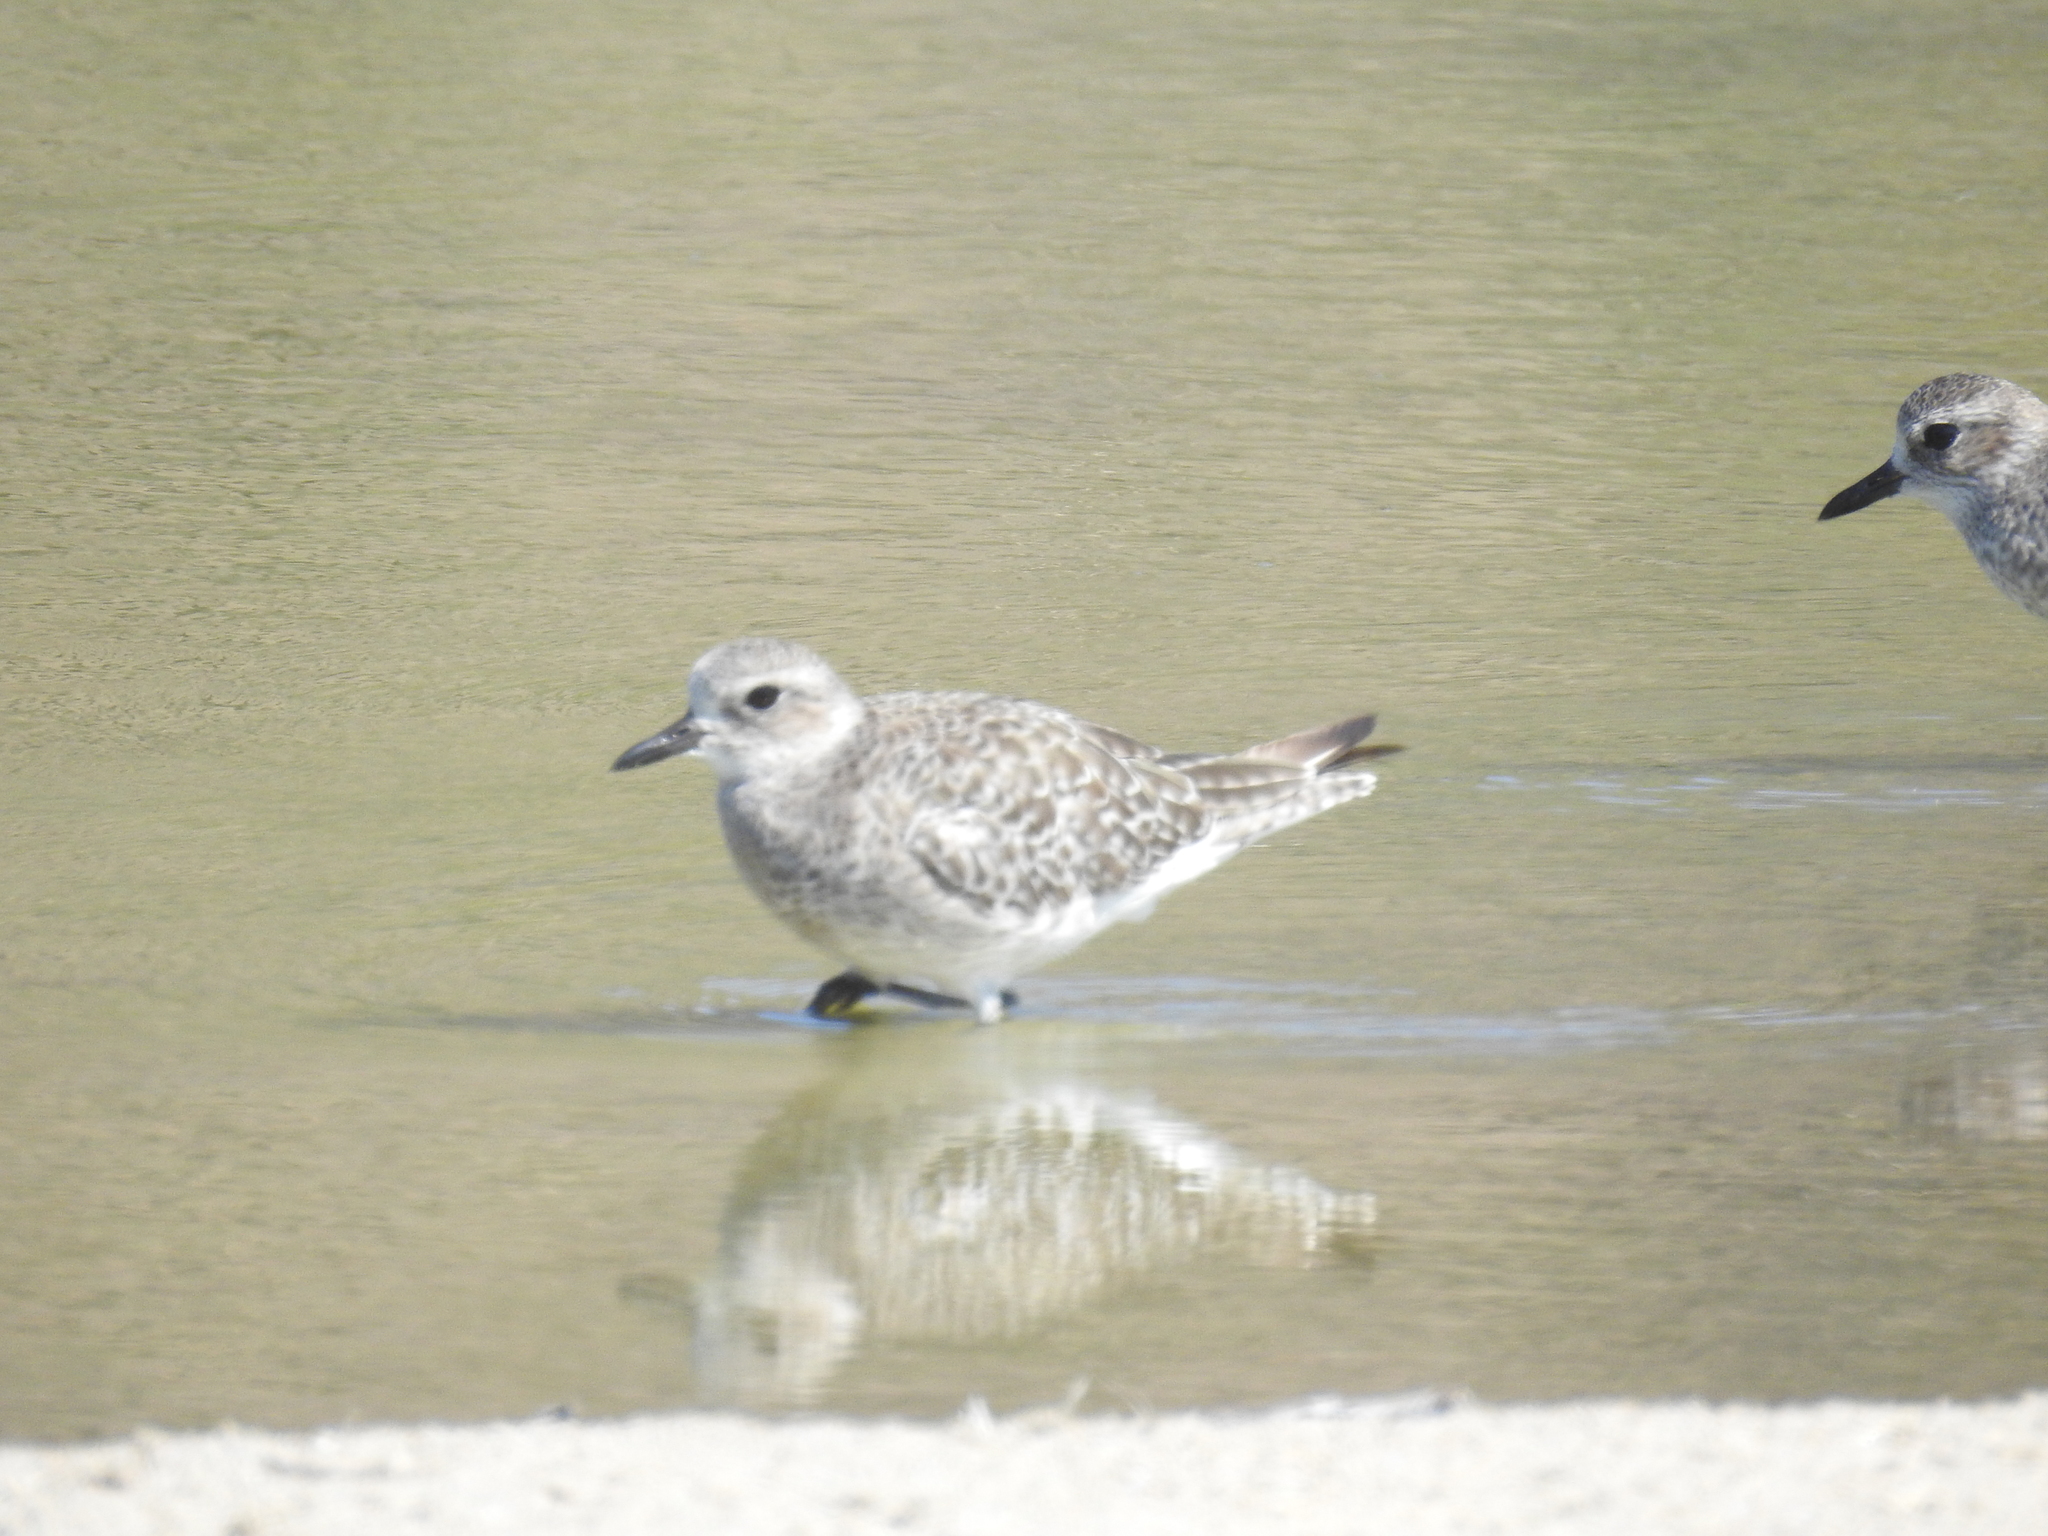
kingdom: Animalia
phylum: Chordata
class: Aves
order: Charadriiformes
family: Charadriidae
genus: Pluvialis
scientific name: Pluvialis squatarola
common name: Grey plover
